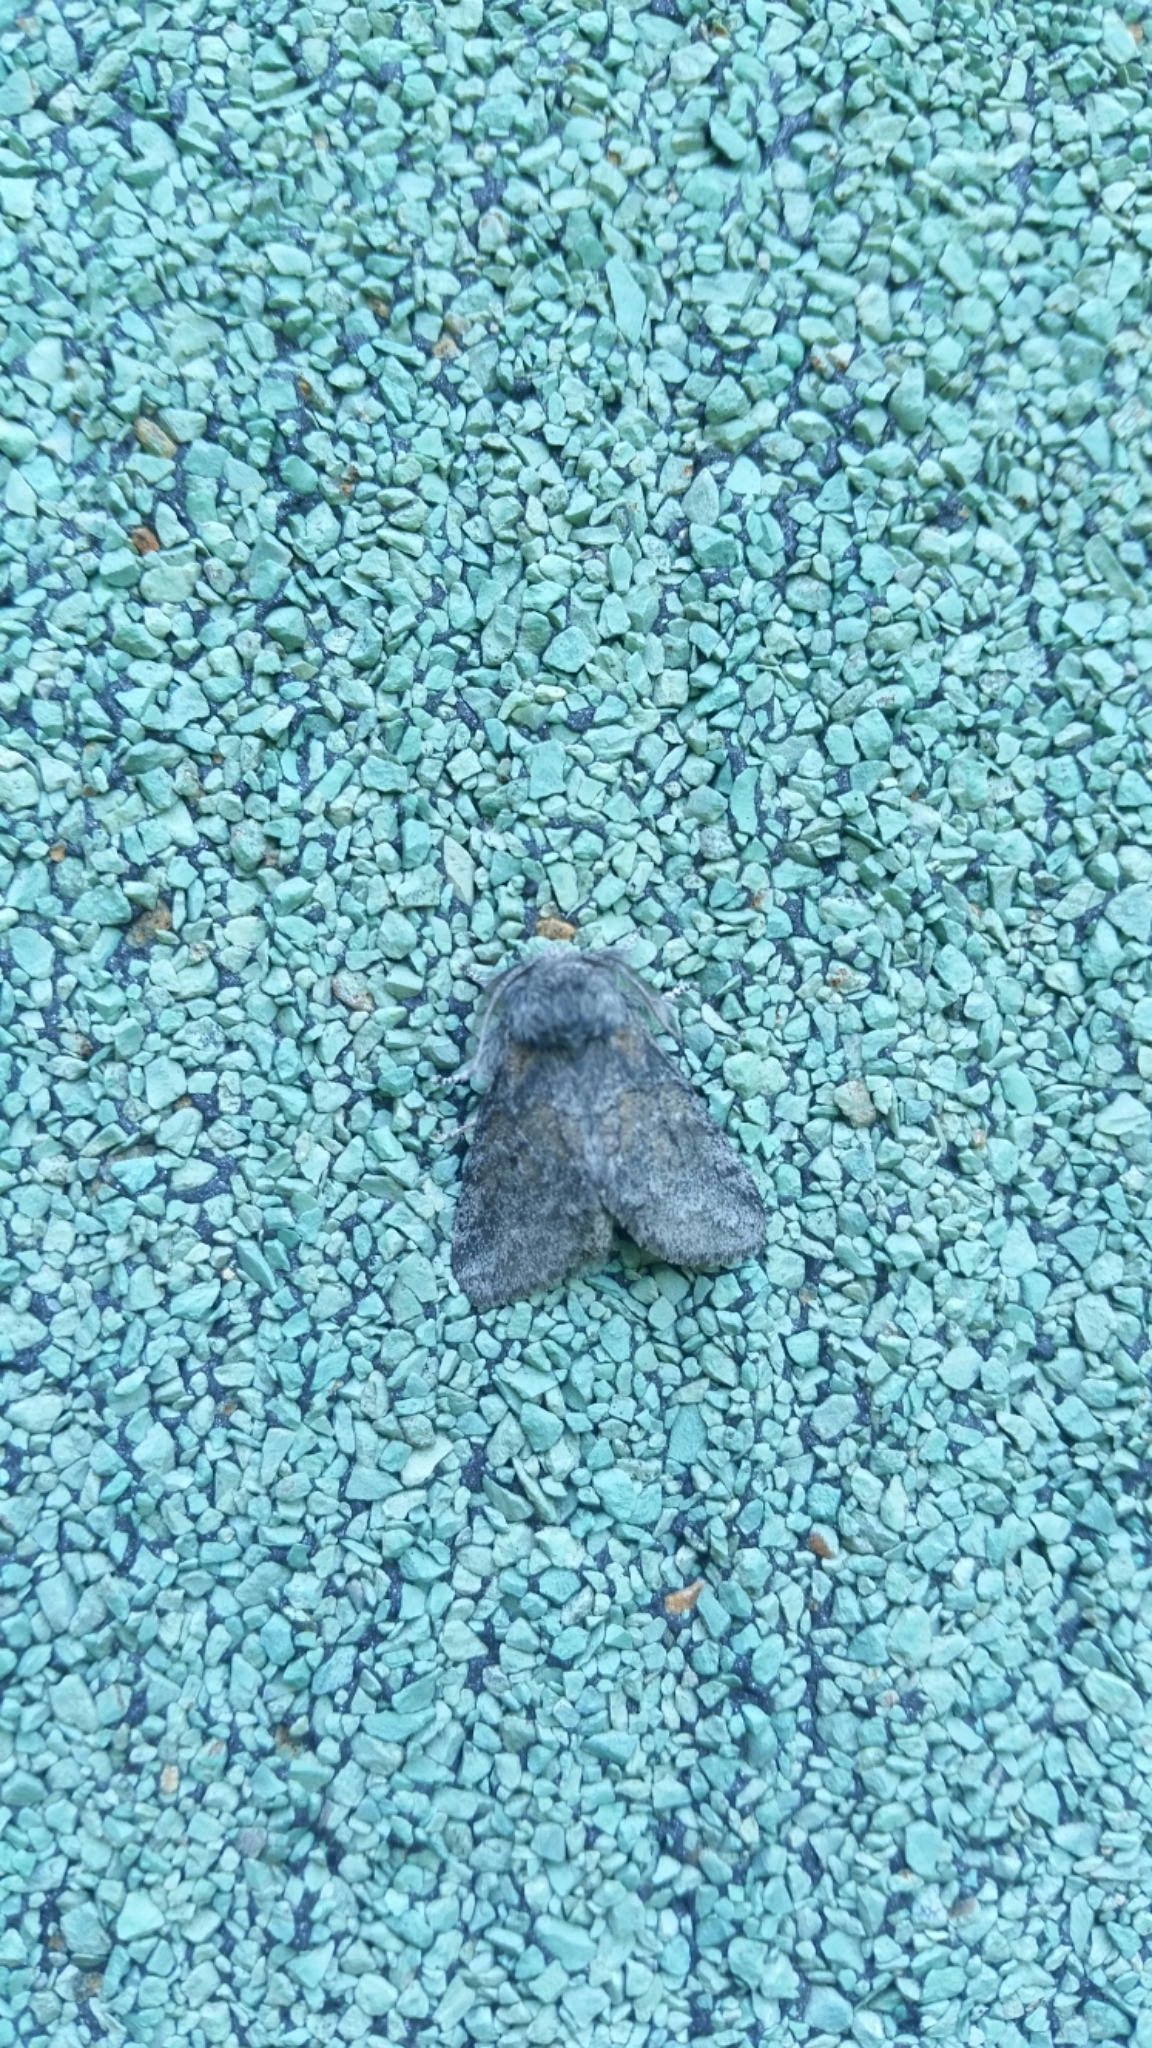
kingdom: Animalia
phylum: Arthropoda
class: Insecta
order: Lepidoptera
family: Notodontidae
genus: Gluphisia
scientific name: Gluphisia septentrionis
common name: Common gluphisia
